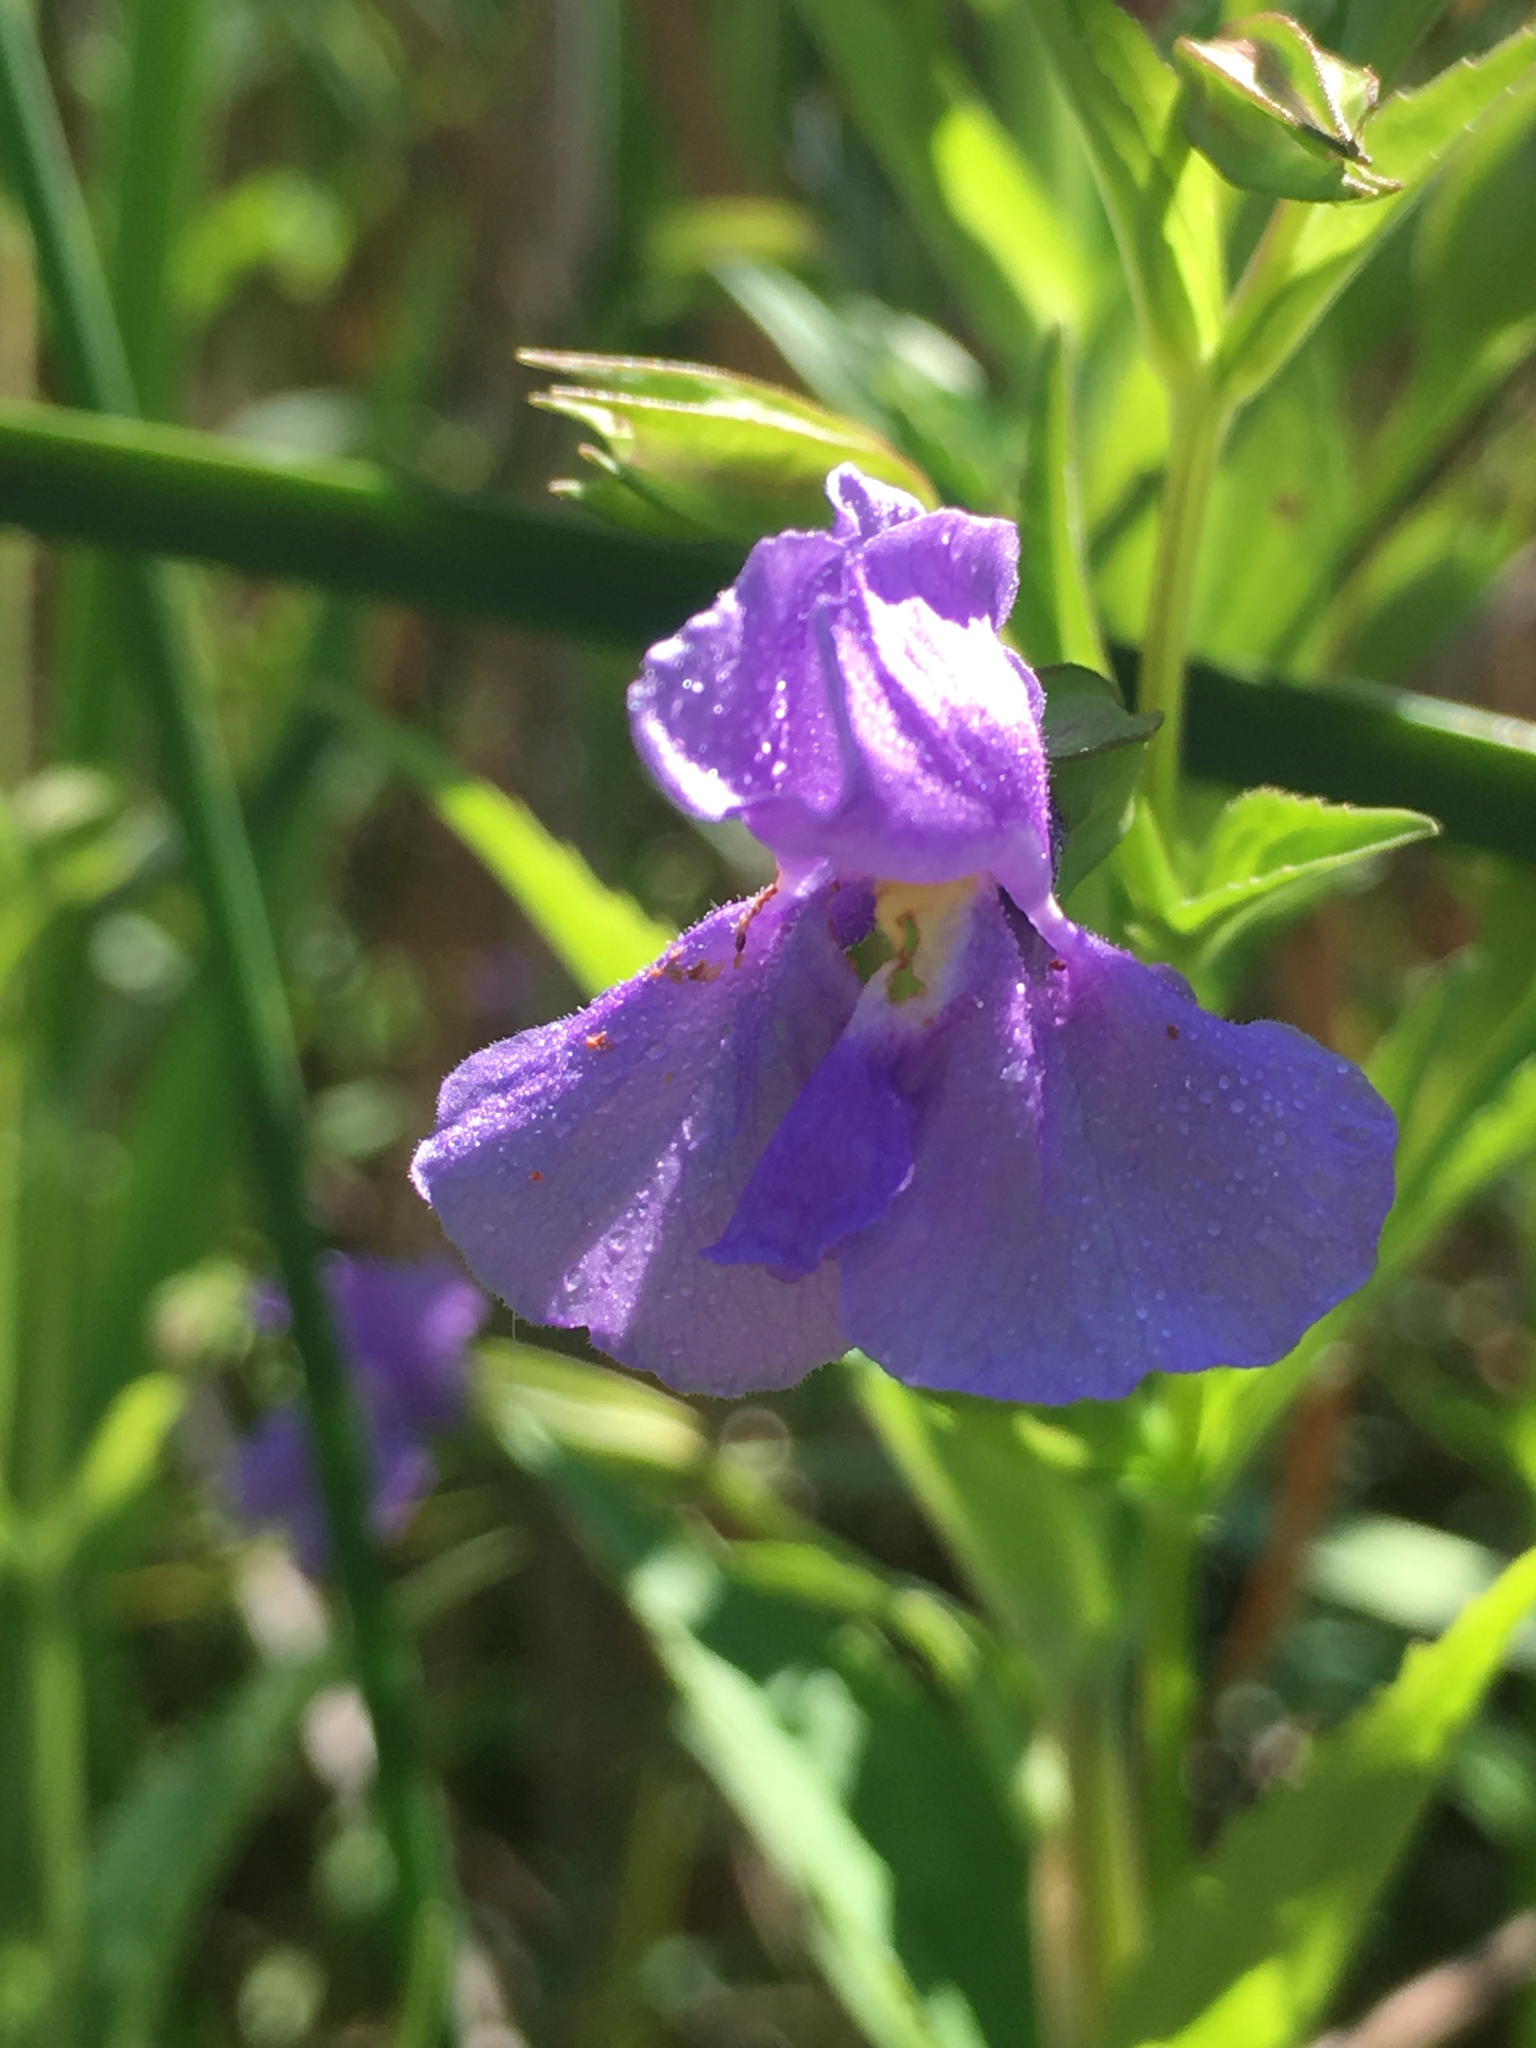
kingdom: Plantae
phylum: Tracheophyta
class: Magnoliopsida
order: Lamiales
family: Phrymaceae
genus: Mimulus
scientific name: Mimulus ringens
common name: Allegheny monkeyflower
